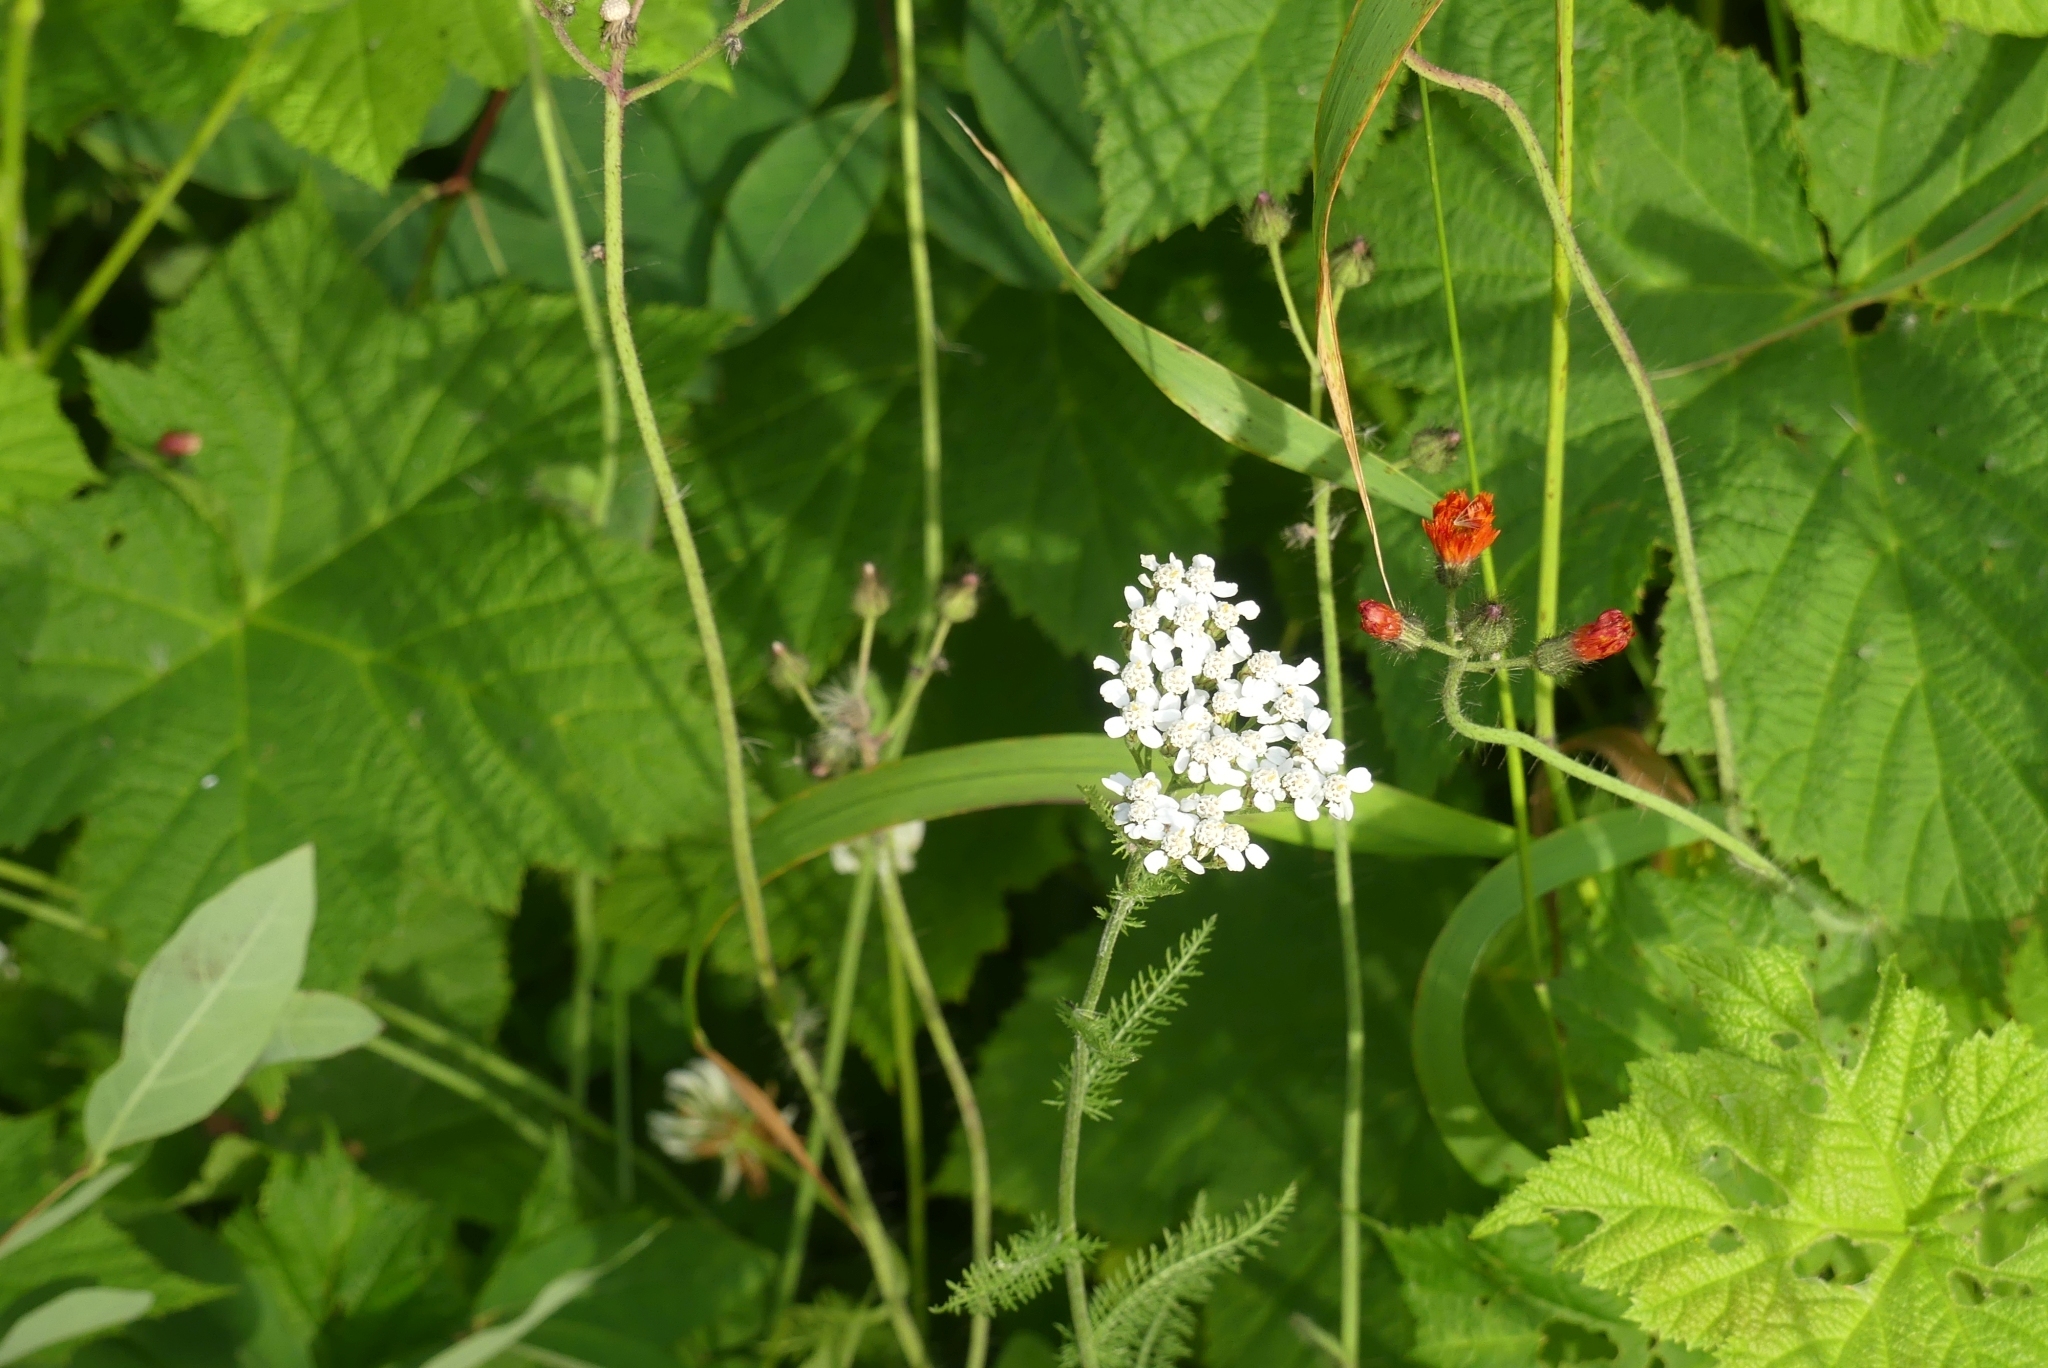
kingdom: Plantae
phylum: Tracheophyta
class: Magnoliopsida
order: Asterales
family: Asteraceae
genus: Achillea
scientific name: Achillea millefolium
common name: Yarrow
